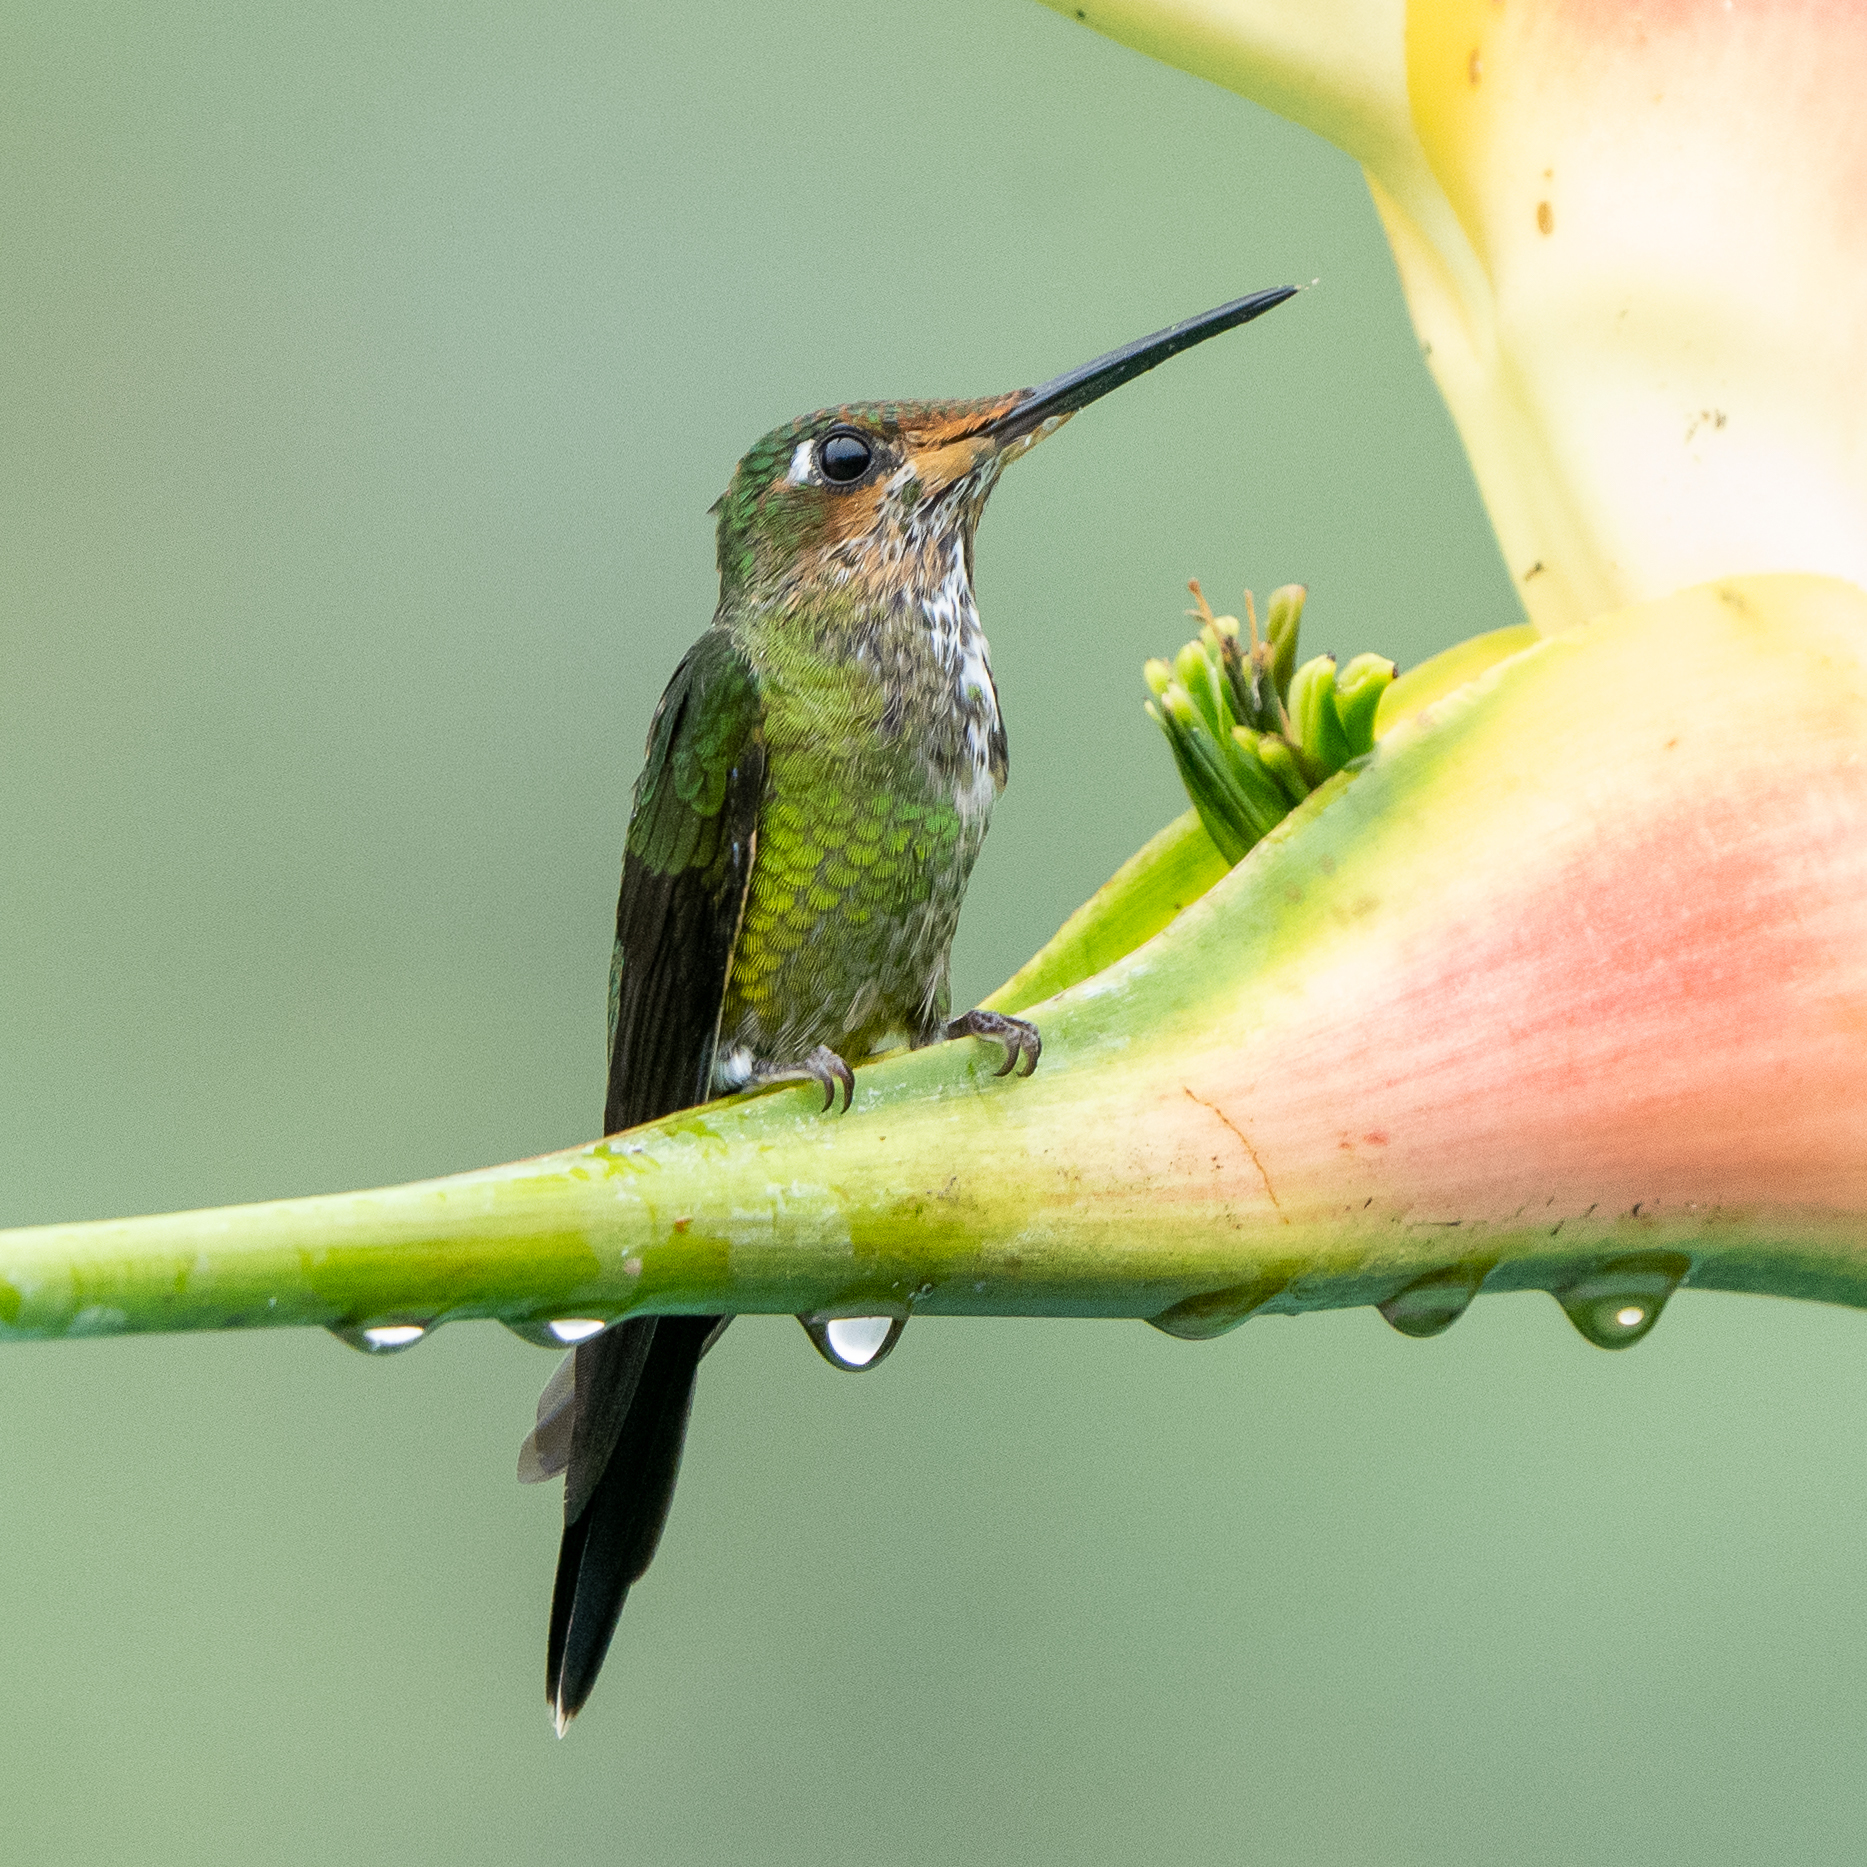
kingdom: Animalia
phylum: Chordata
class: Aves
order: Apodiformes
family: Trochilidae
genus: Heliodoxa
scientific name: Heliodoxa imperatrix
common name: Empress brilliant
